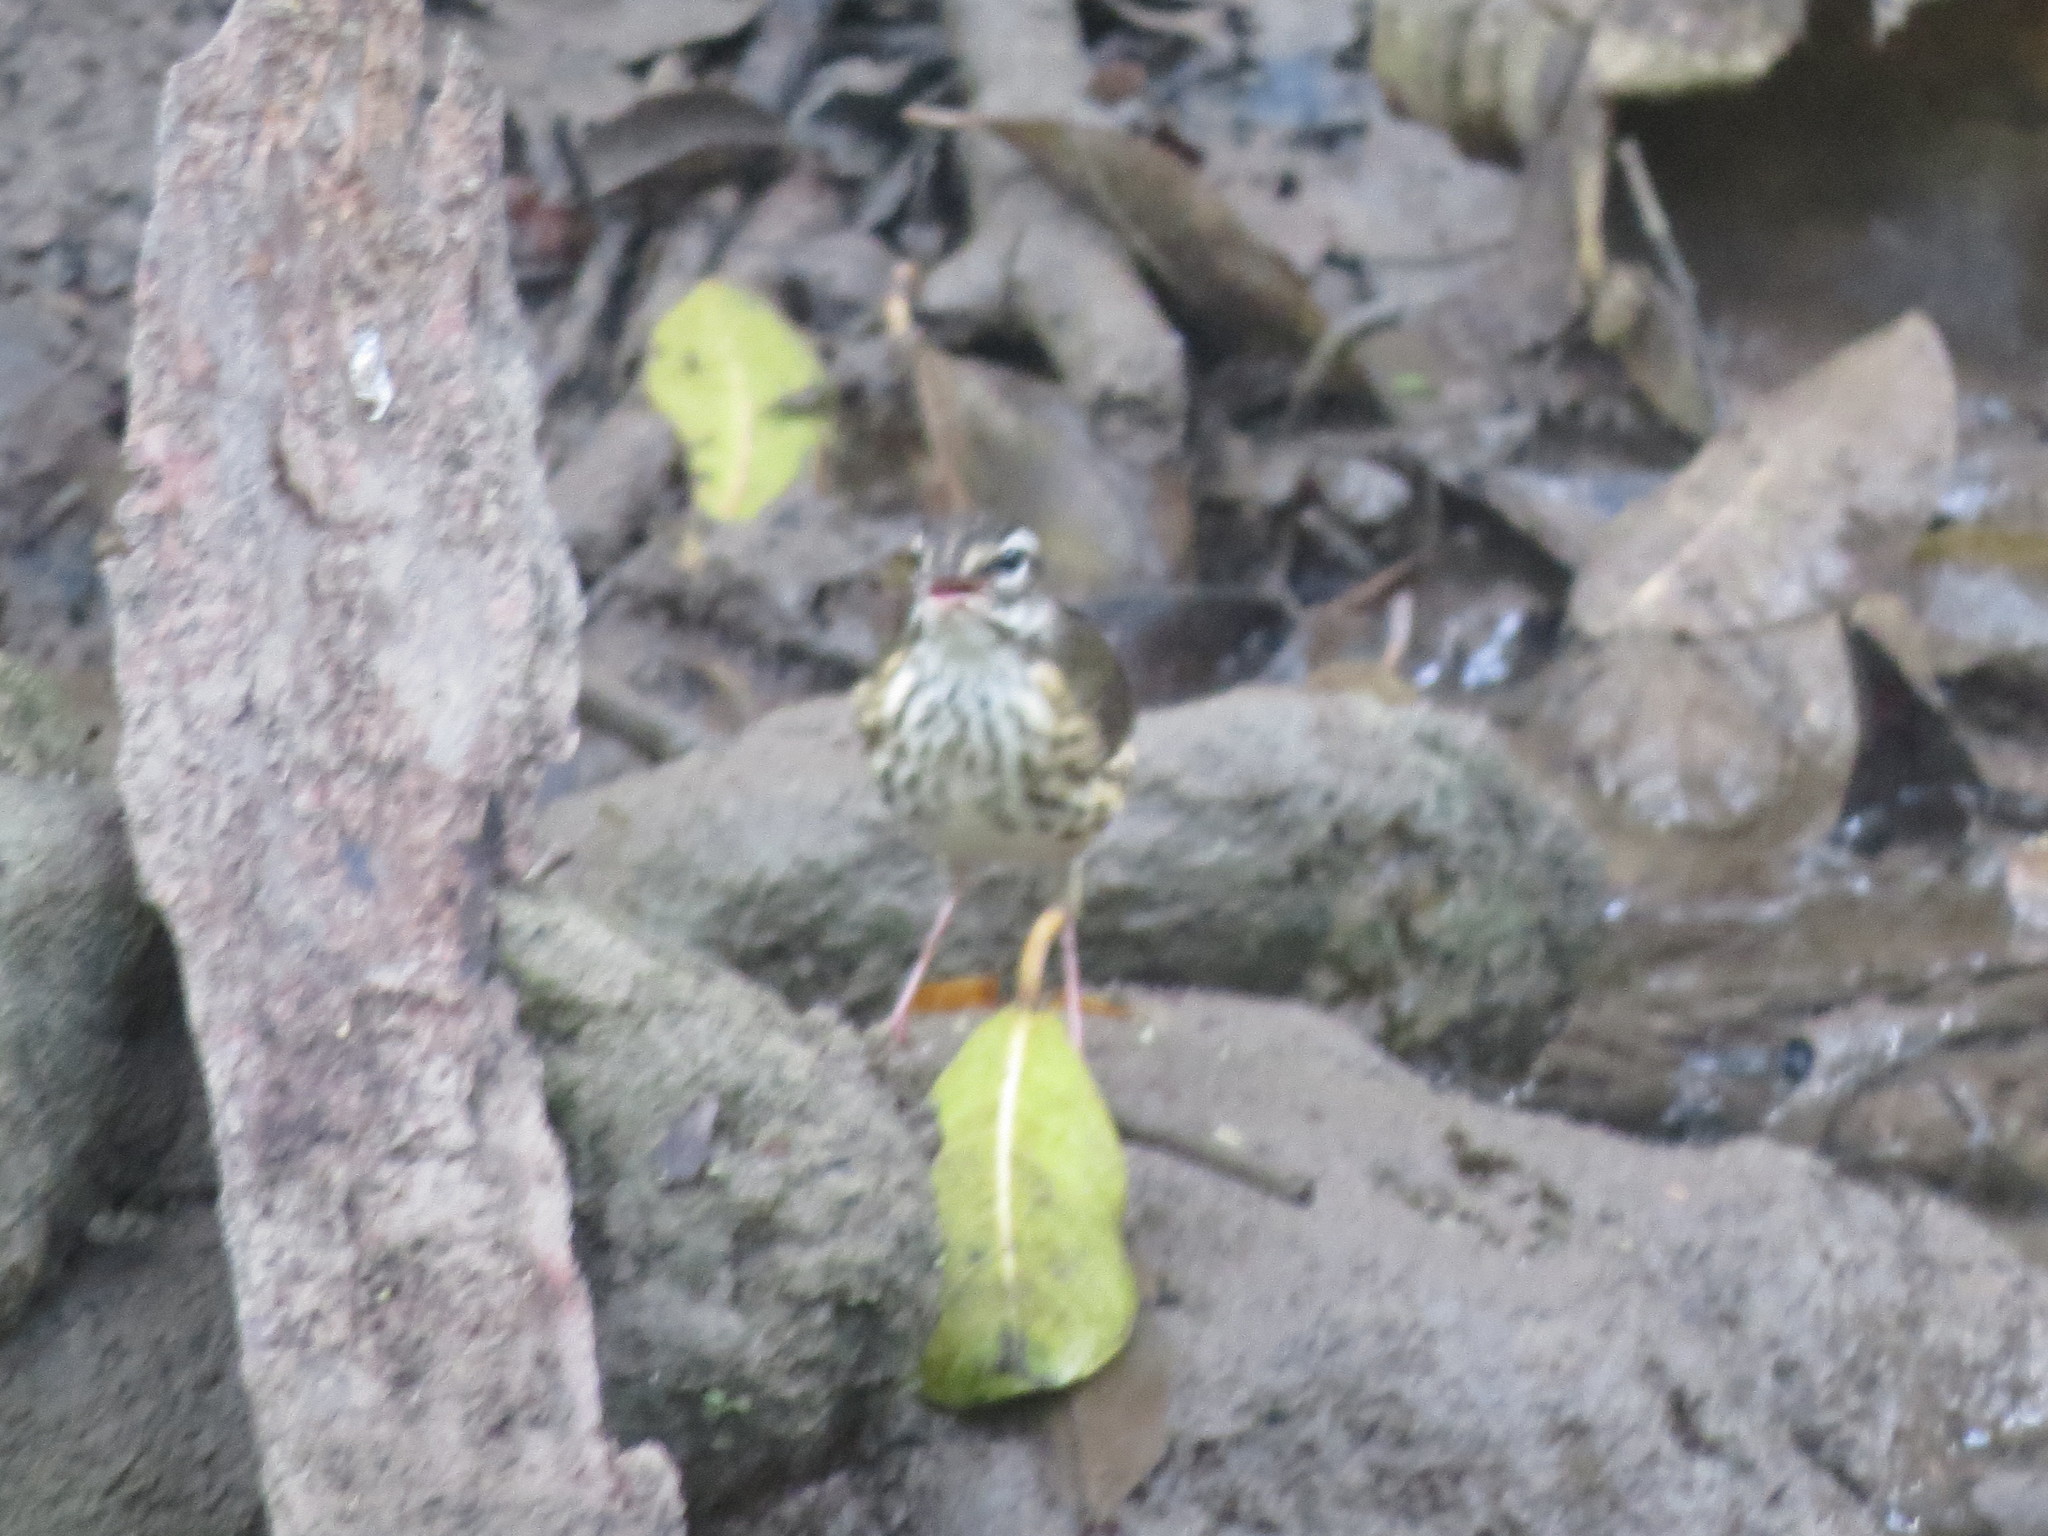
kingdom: Animalia
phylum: Chordata
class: Aves
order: Passeriformes
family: Parulidae
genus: Parkesia
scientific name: Parkesia motacilla
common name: Louisiana waterthrush
